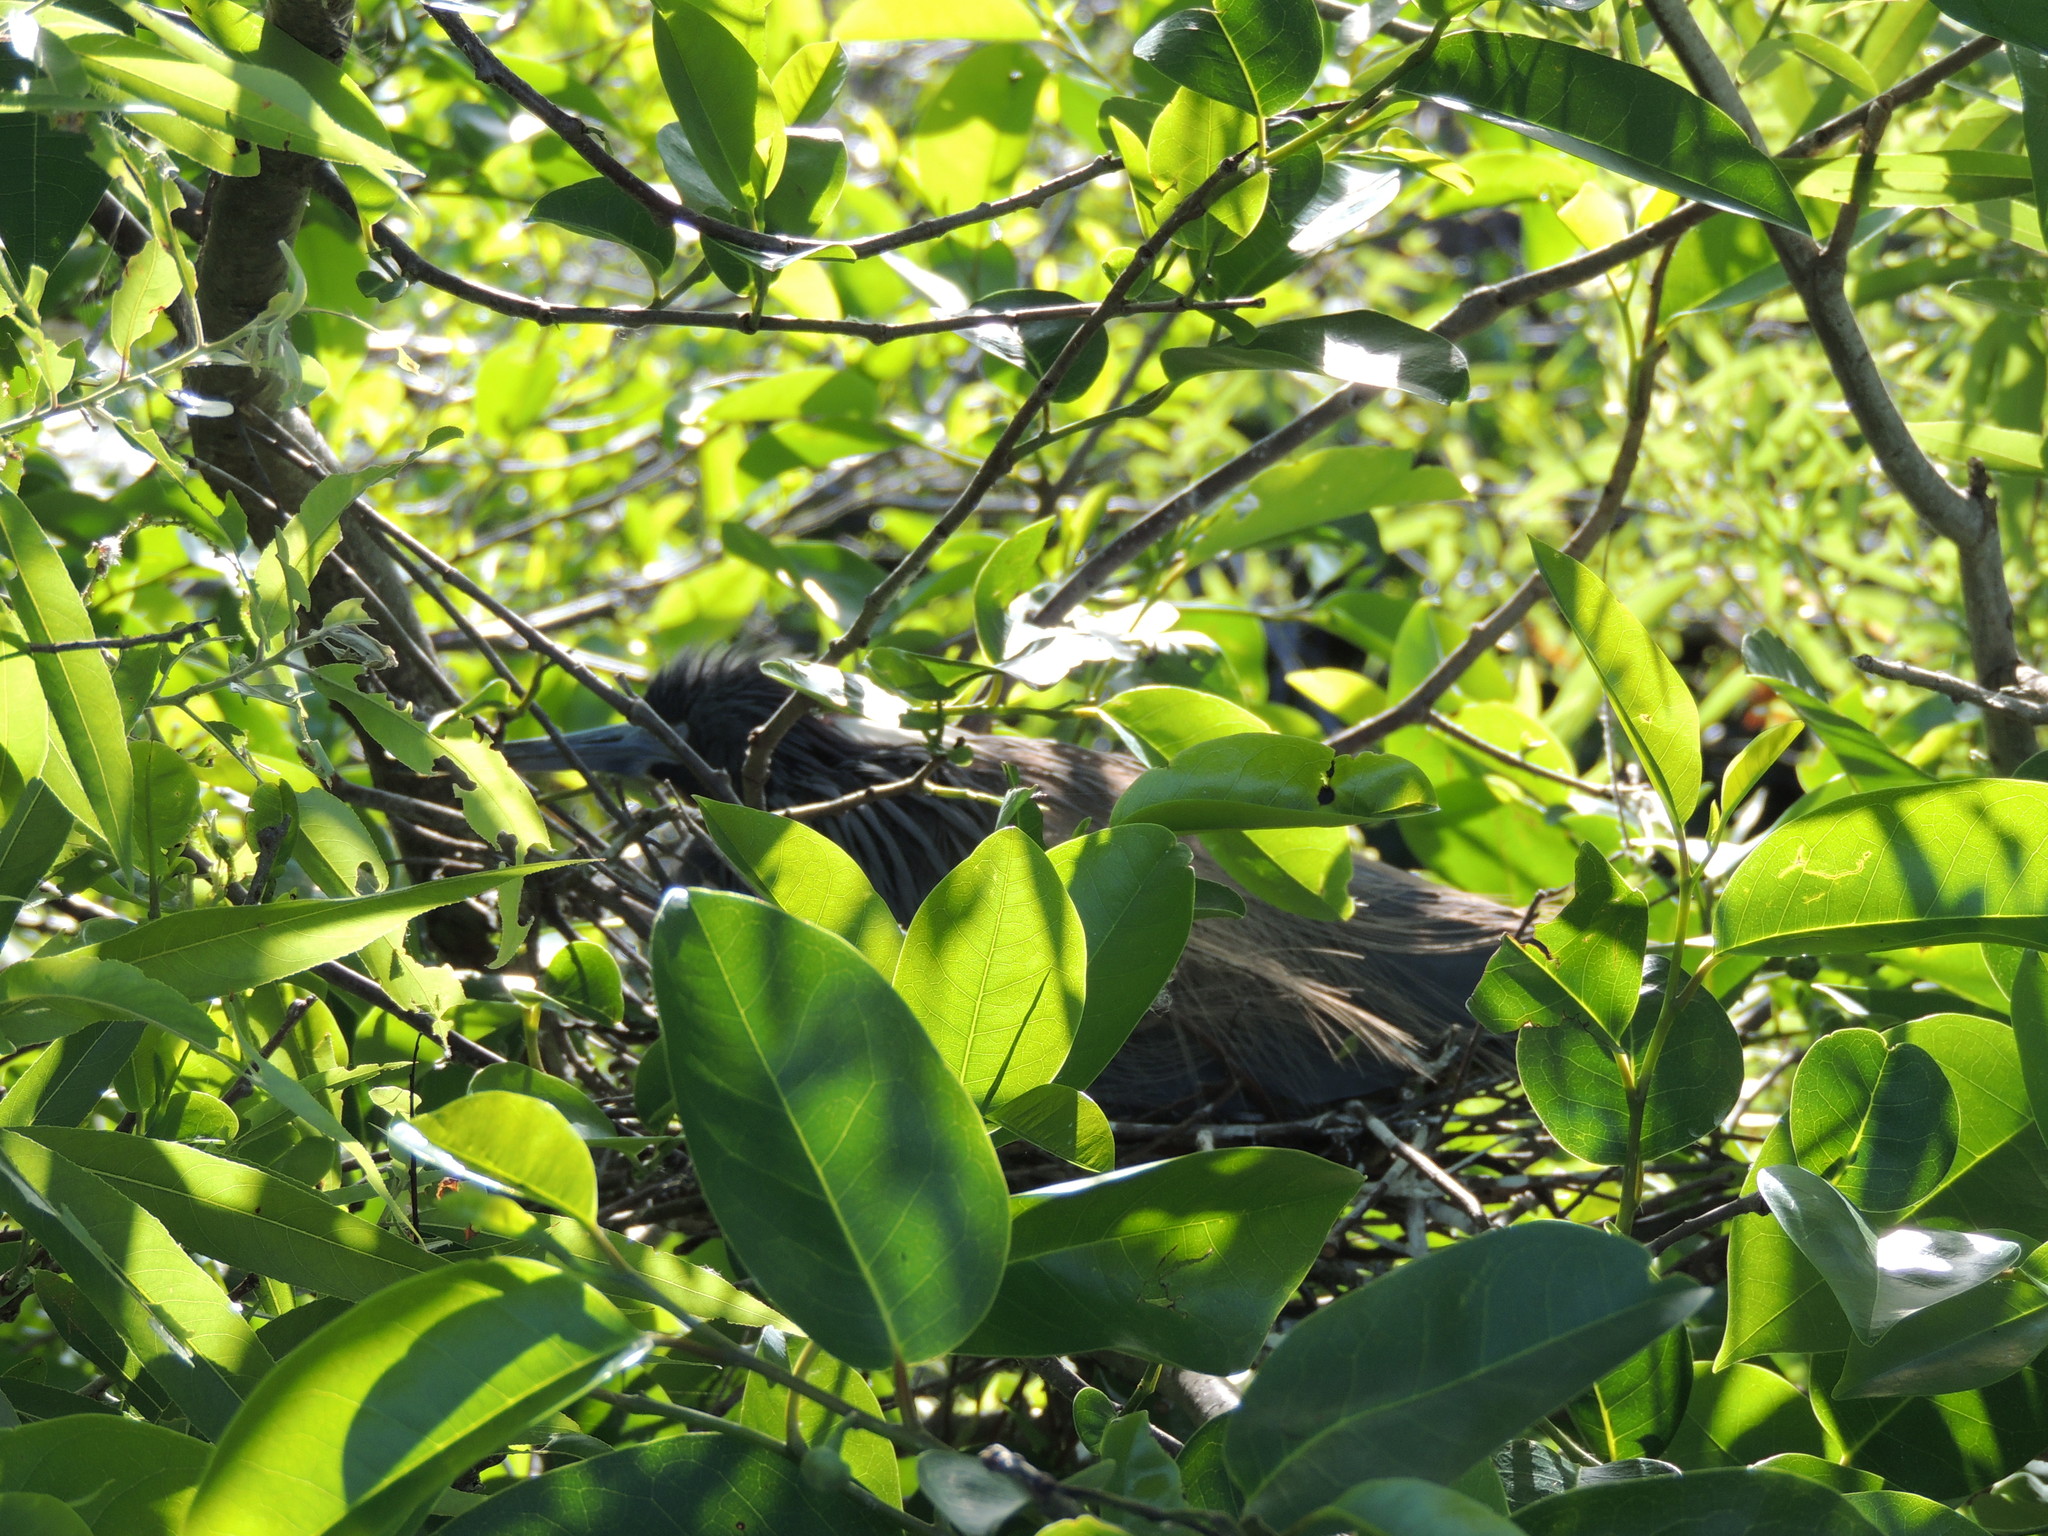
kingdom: Animalia
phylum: Chordata
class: Aves
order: Pelecaniformes
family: Ardeidae
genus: Egretta
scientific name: Egretta tricolor
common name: Tricolored heron
